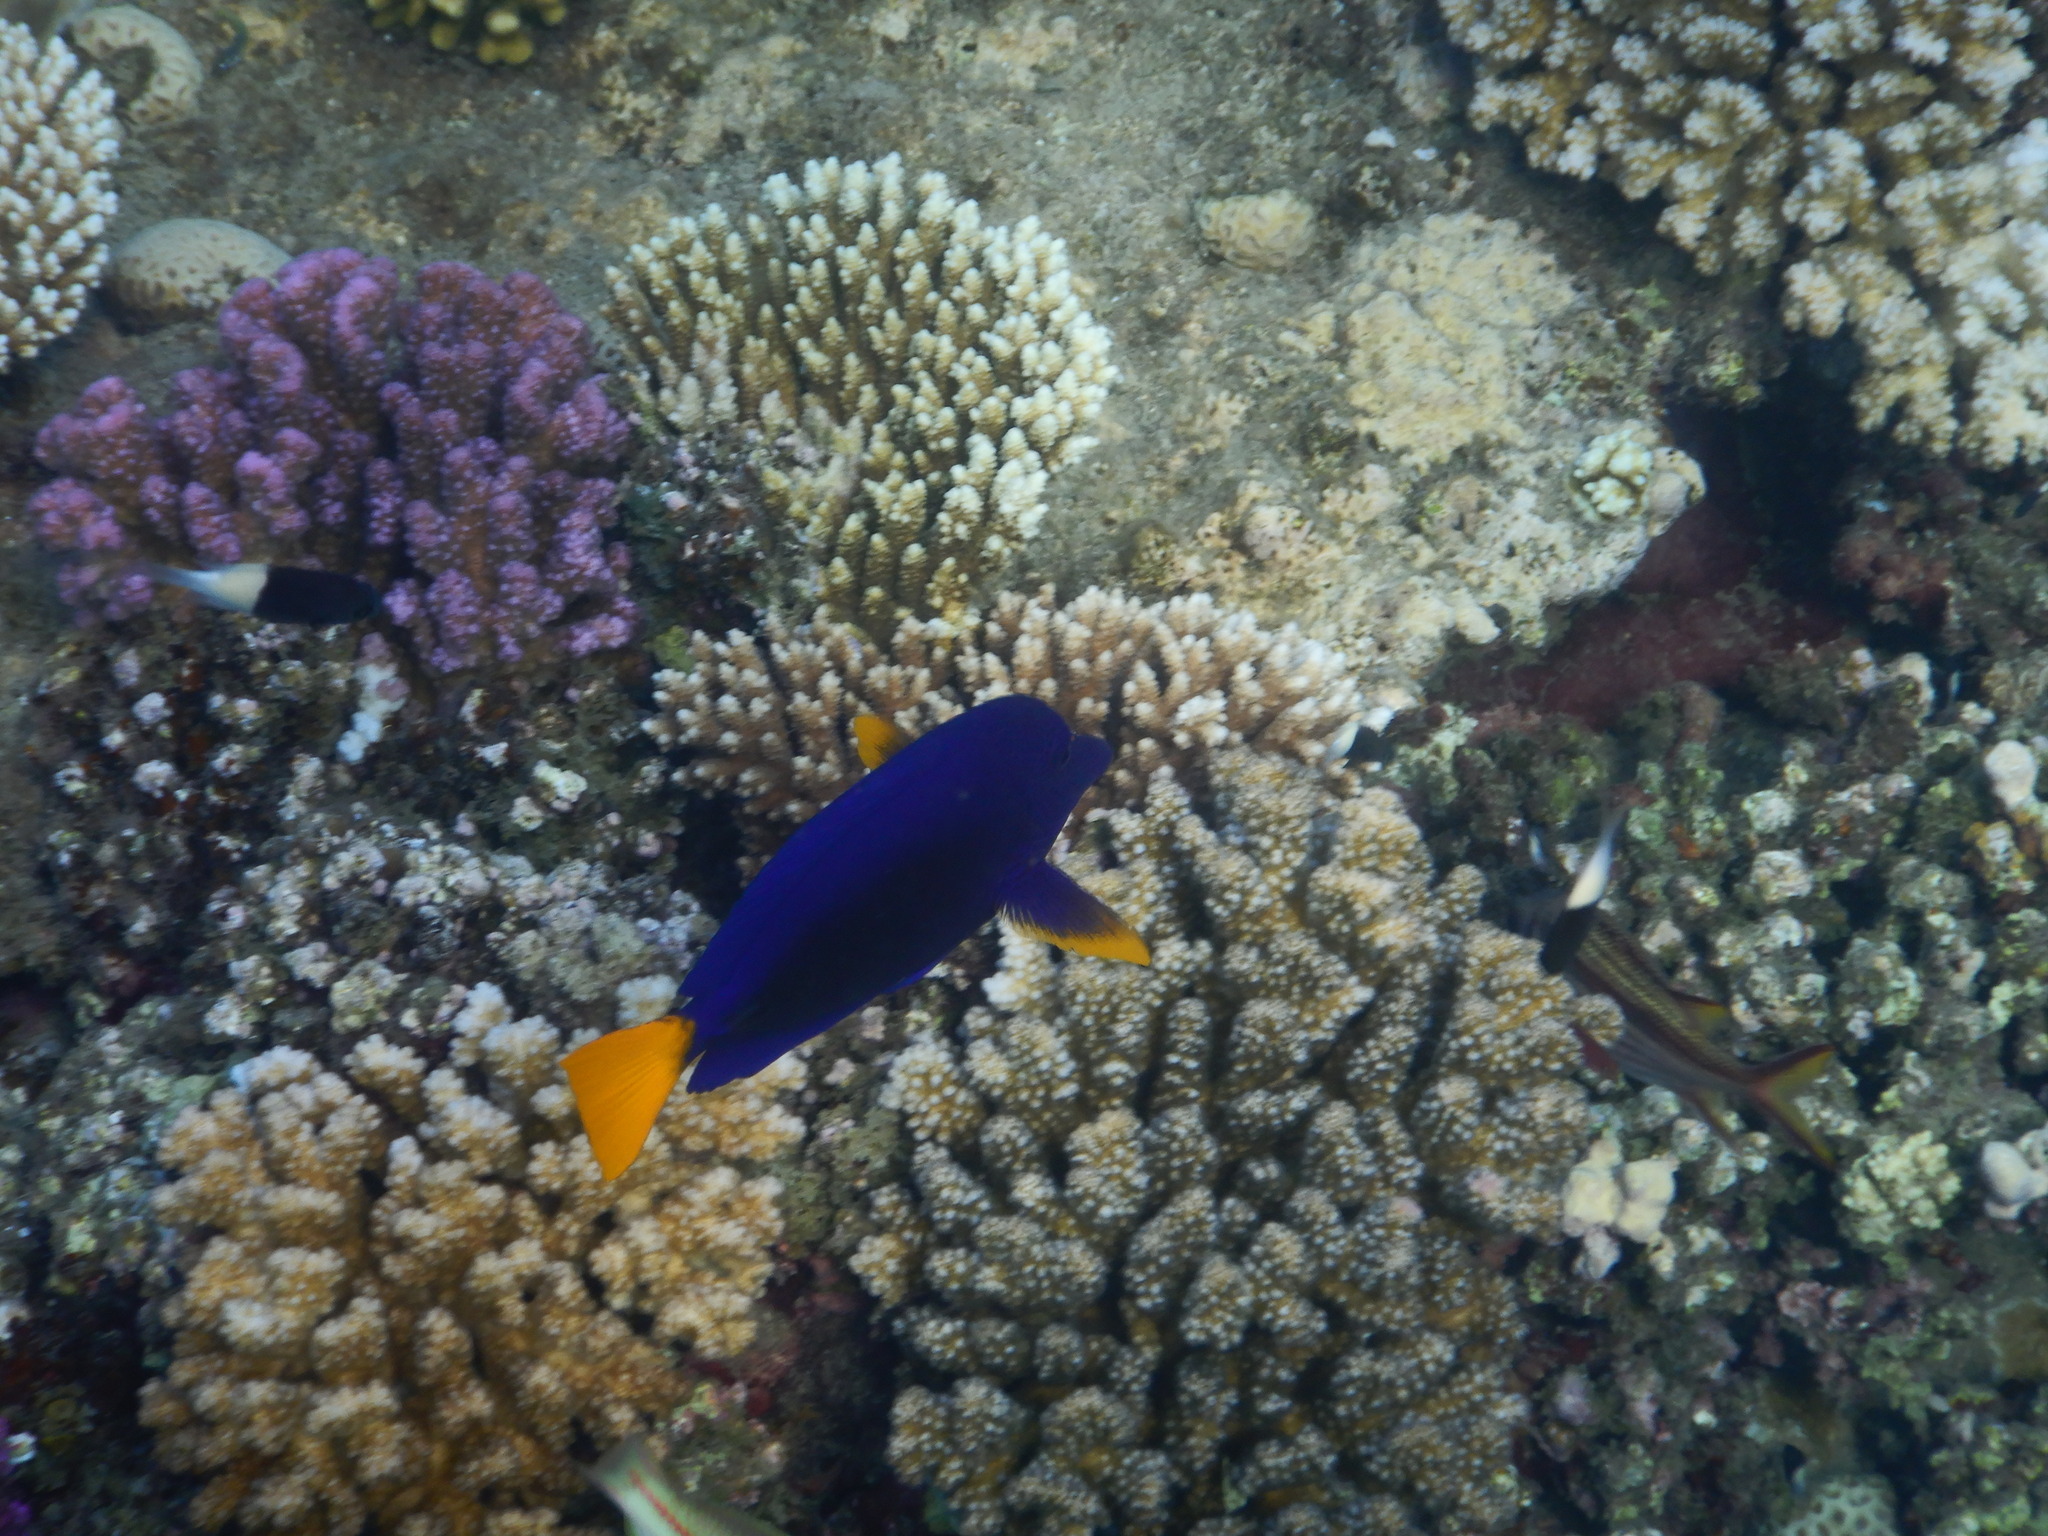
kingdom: Animalia
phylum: Chordata
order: Perciformes
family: Acanthuridae
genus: Zebrasoma
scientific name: Zebrasoma xanthurum
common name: Purple tang
